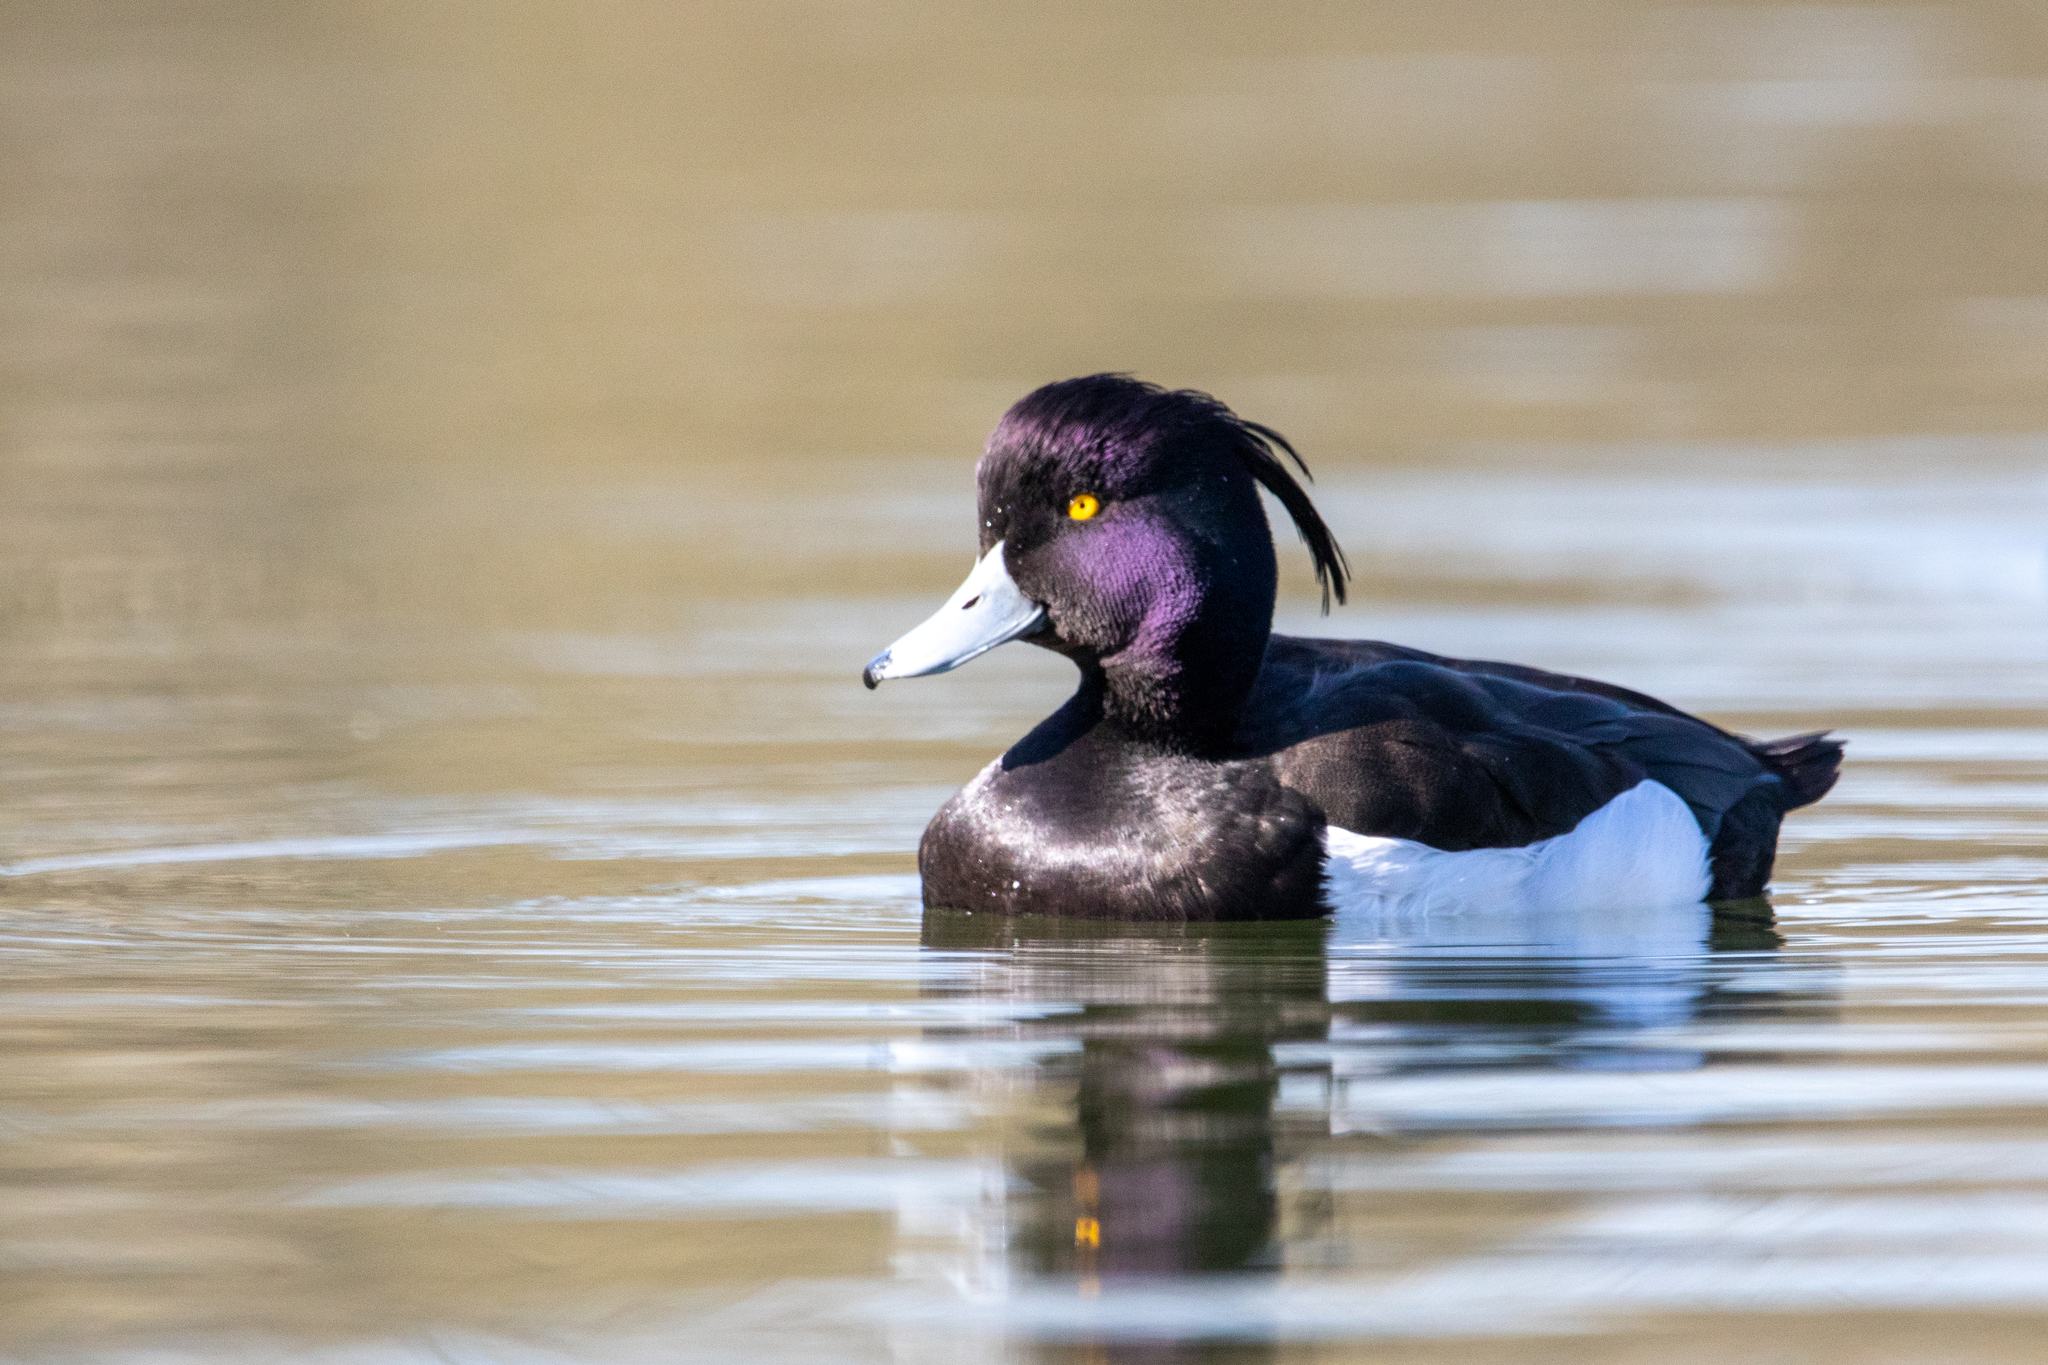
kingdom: Animalia
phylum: Chordata
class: Aves
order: Anseriformes
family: Anatidae
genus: Aythya
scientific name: Aythya fuligula
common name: Tufted duck
